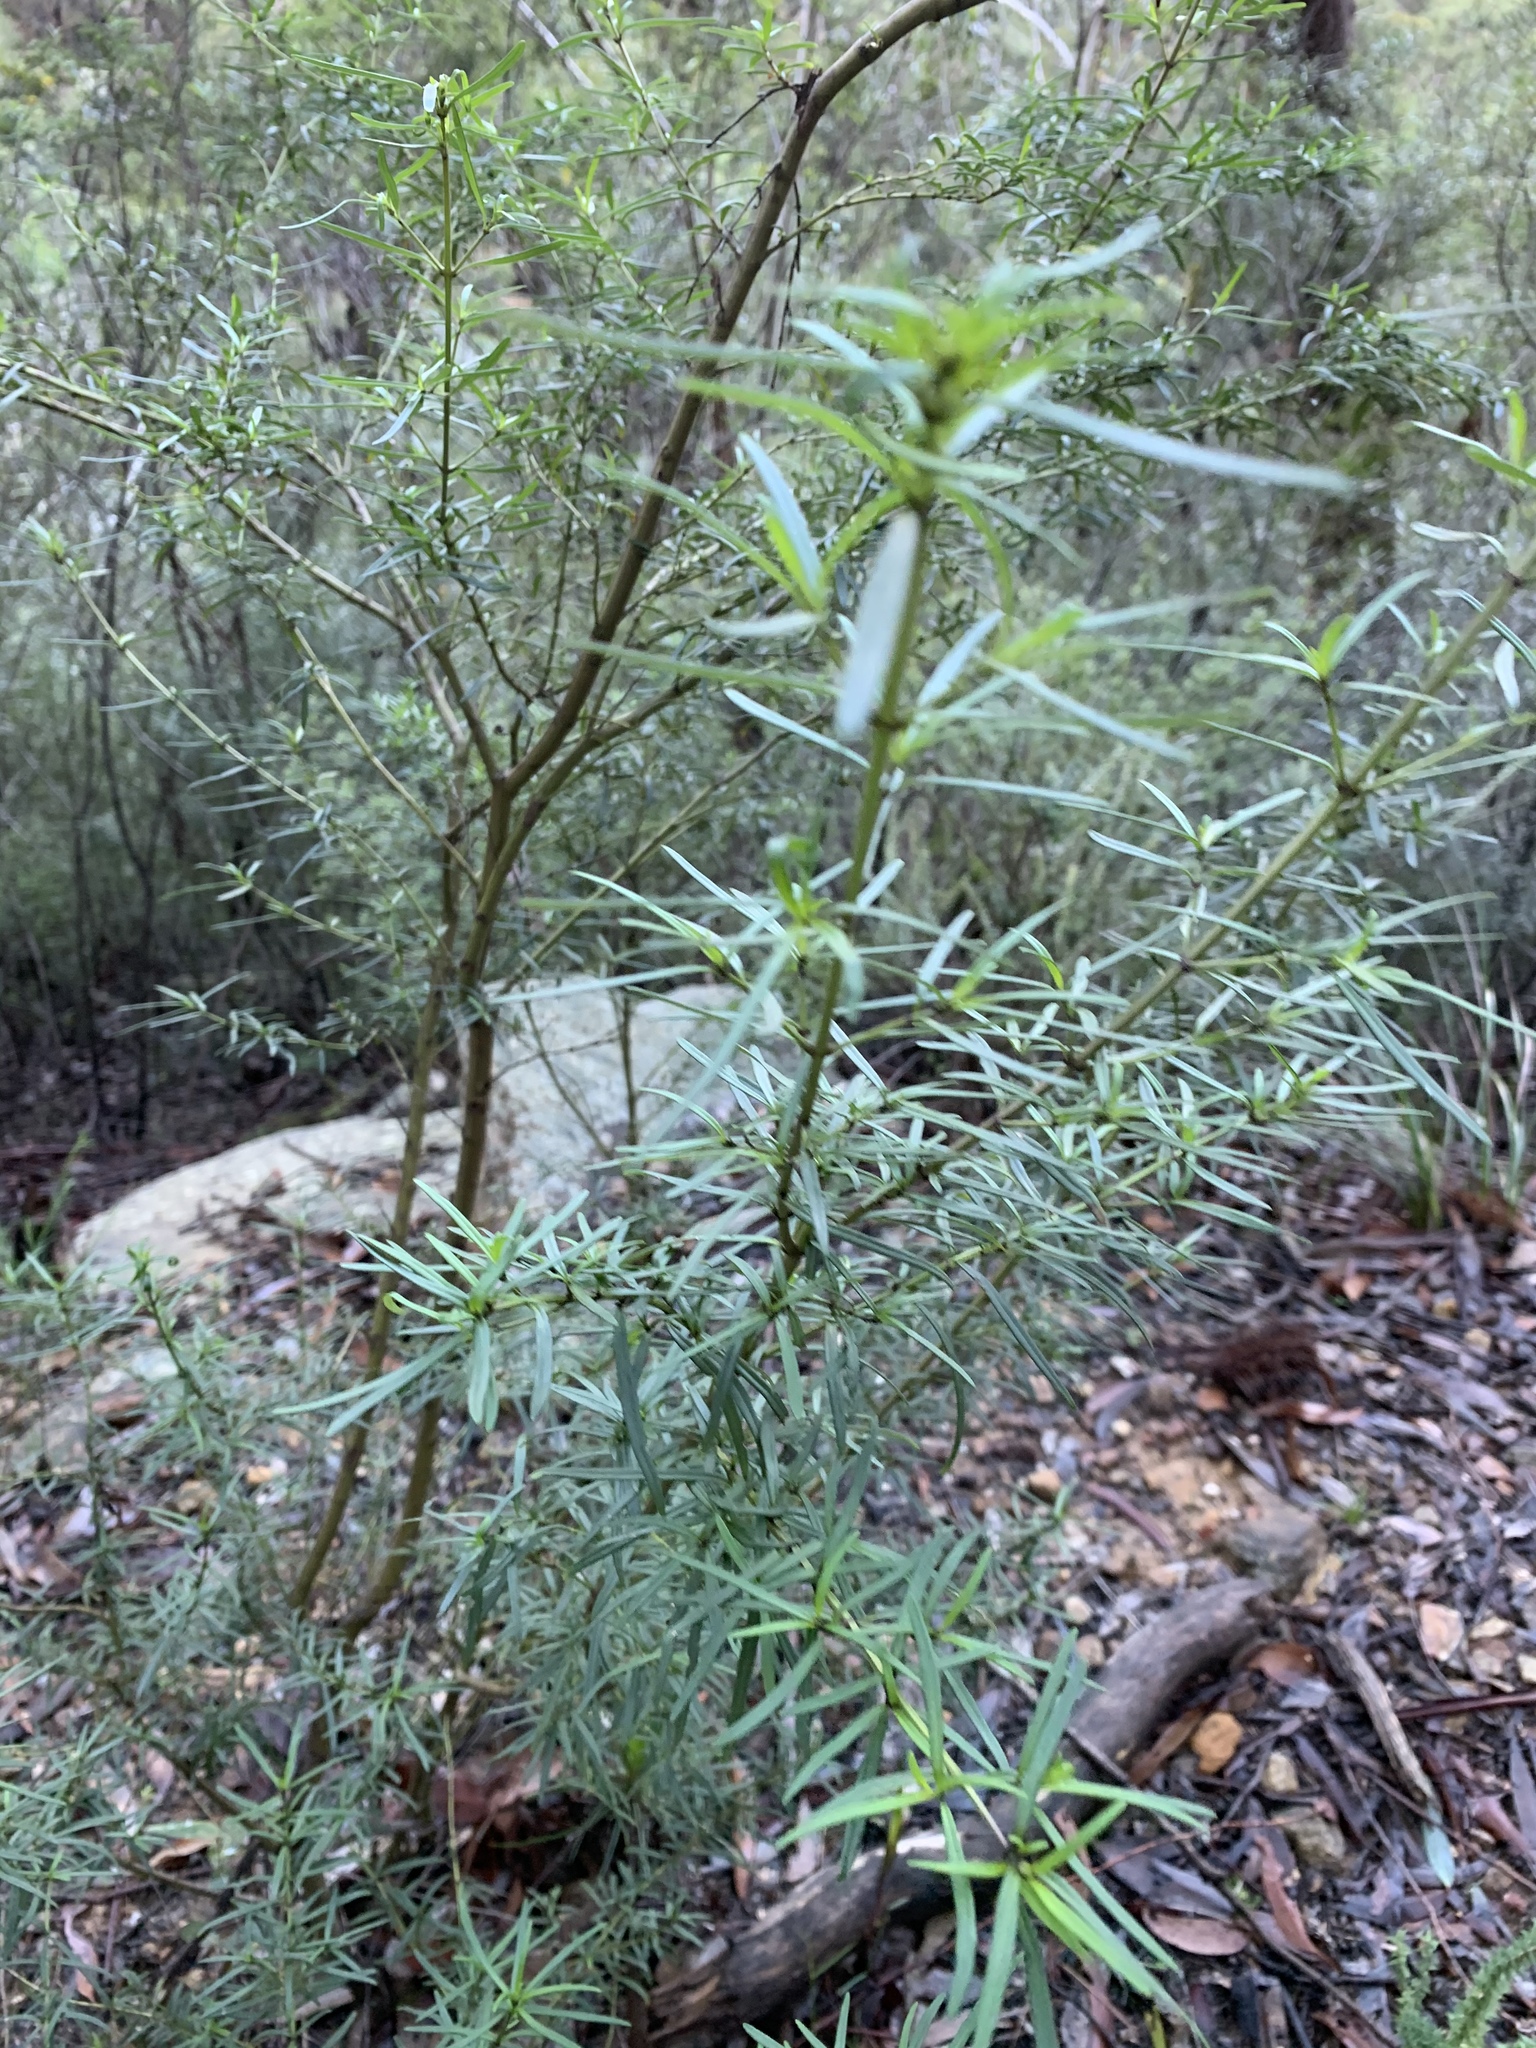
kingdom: Plantae
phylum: Tracheophyta
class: Magnoliopsida
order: Lamiales
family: Lamiaceae
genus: Prostanthera
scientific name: Prostanthera linearis
